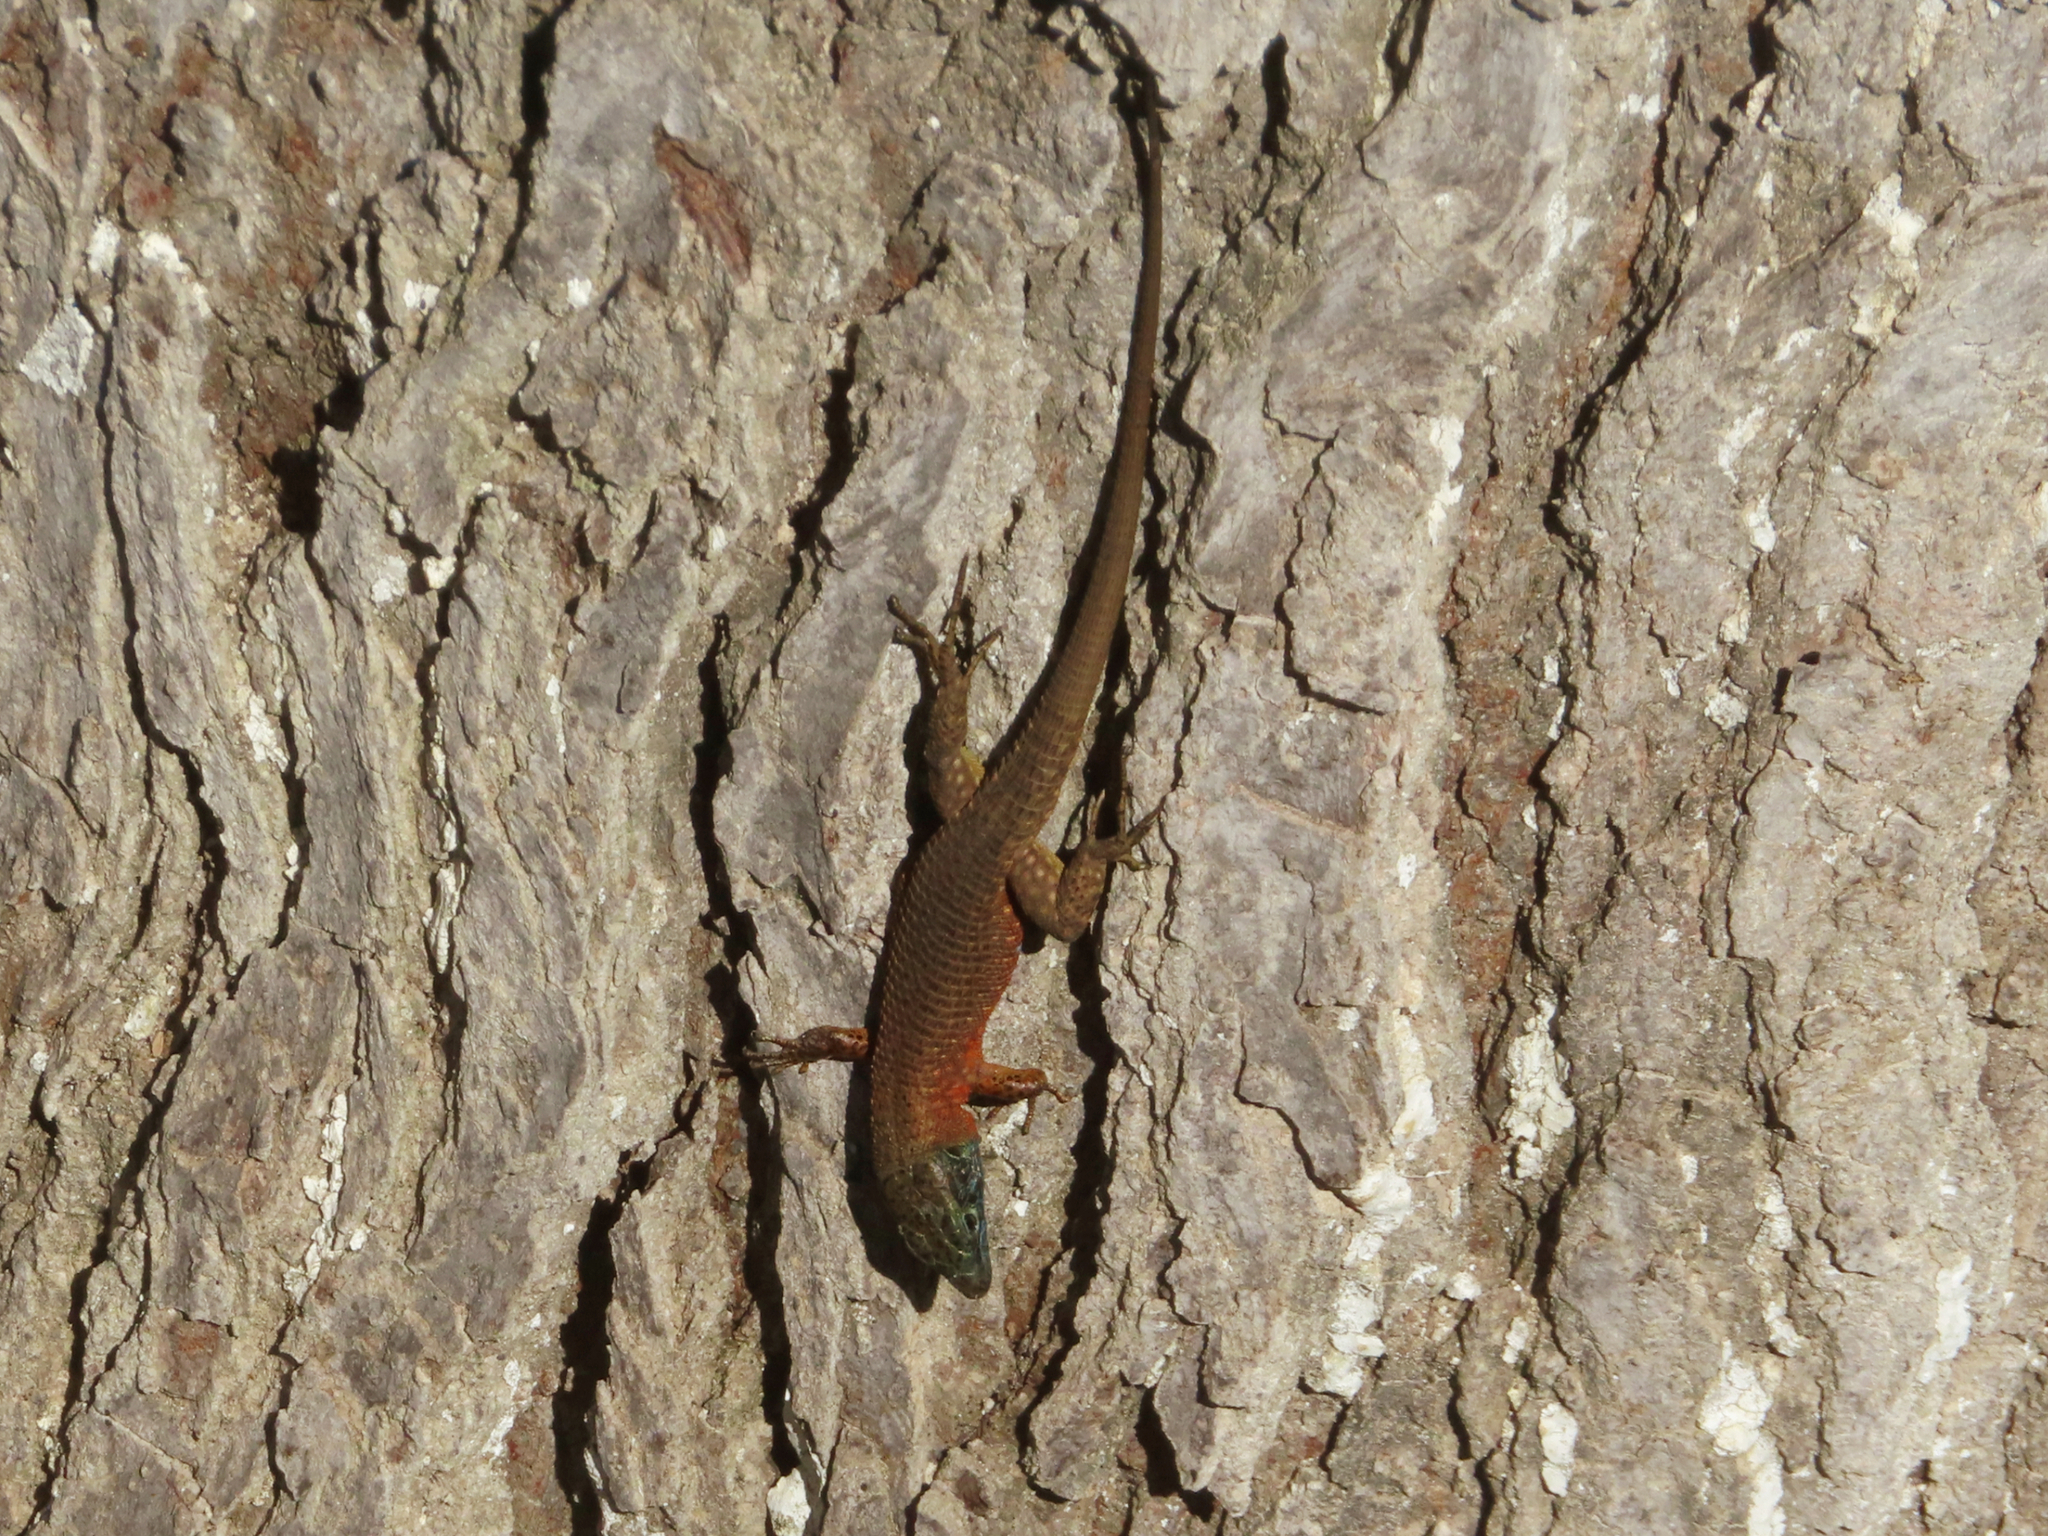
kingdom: Animalia
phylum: Chordata
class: Squamata
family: Lacertidae
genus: Algyroides
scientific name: Algyroides nigropunctatus
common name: Blue-throated keeled lizard
